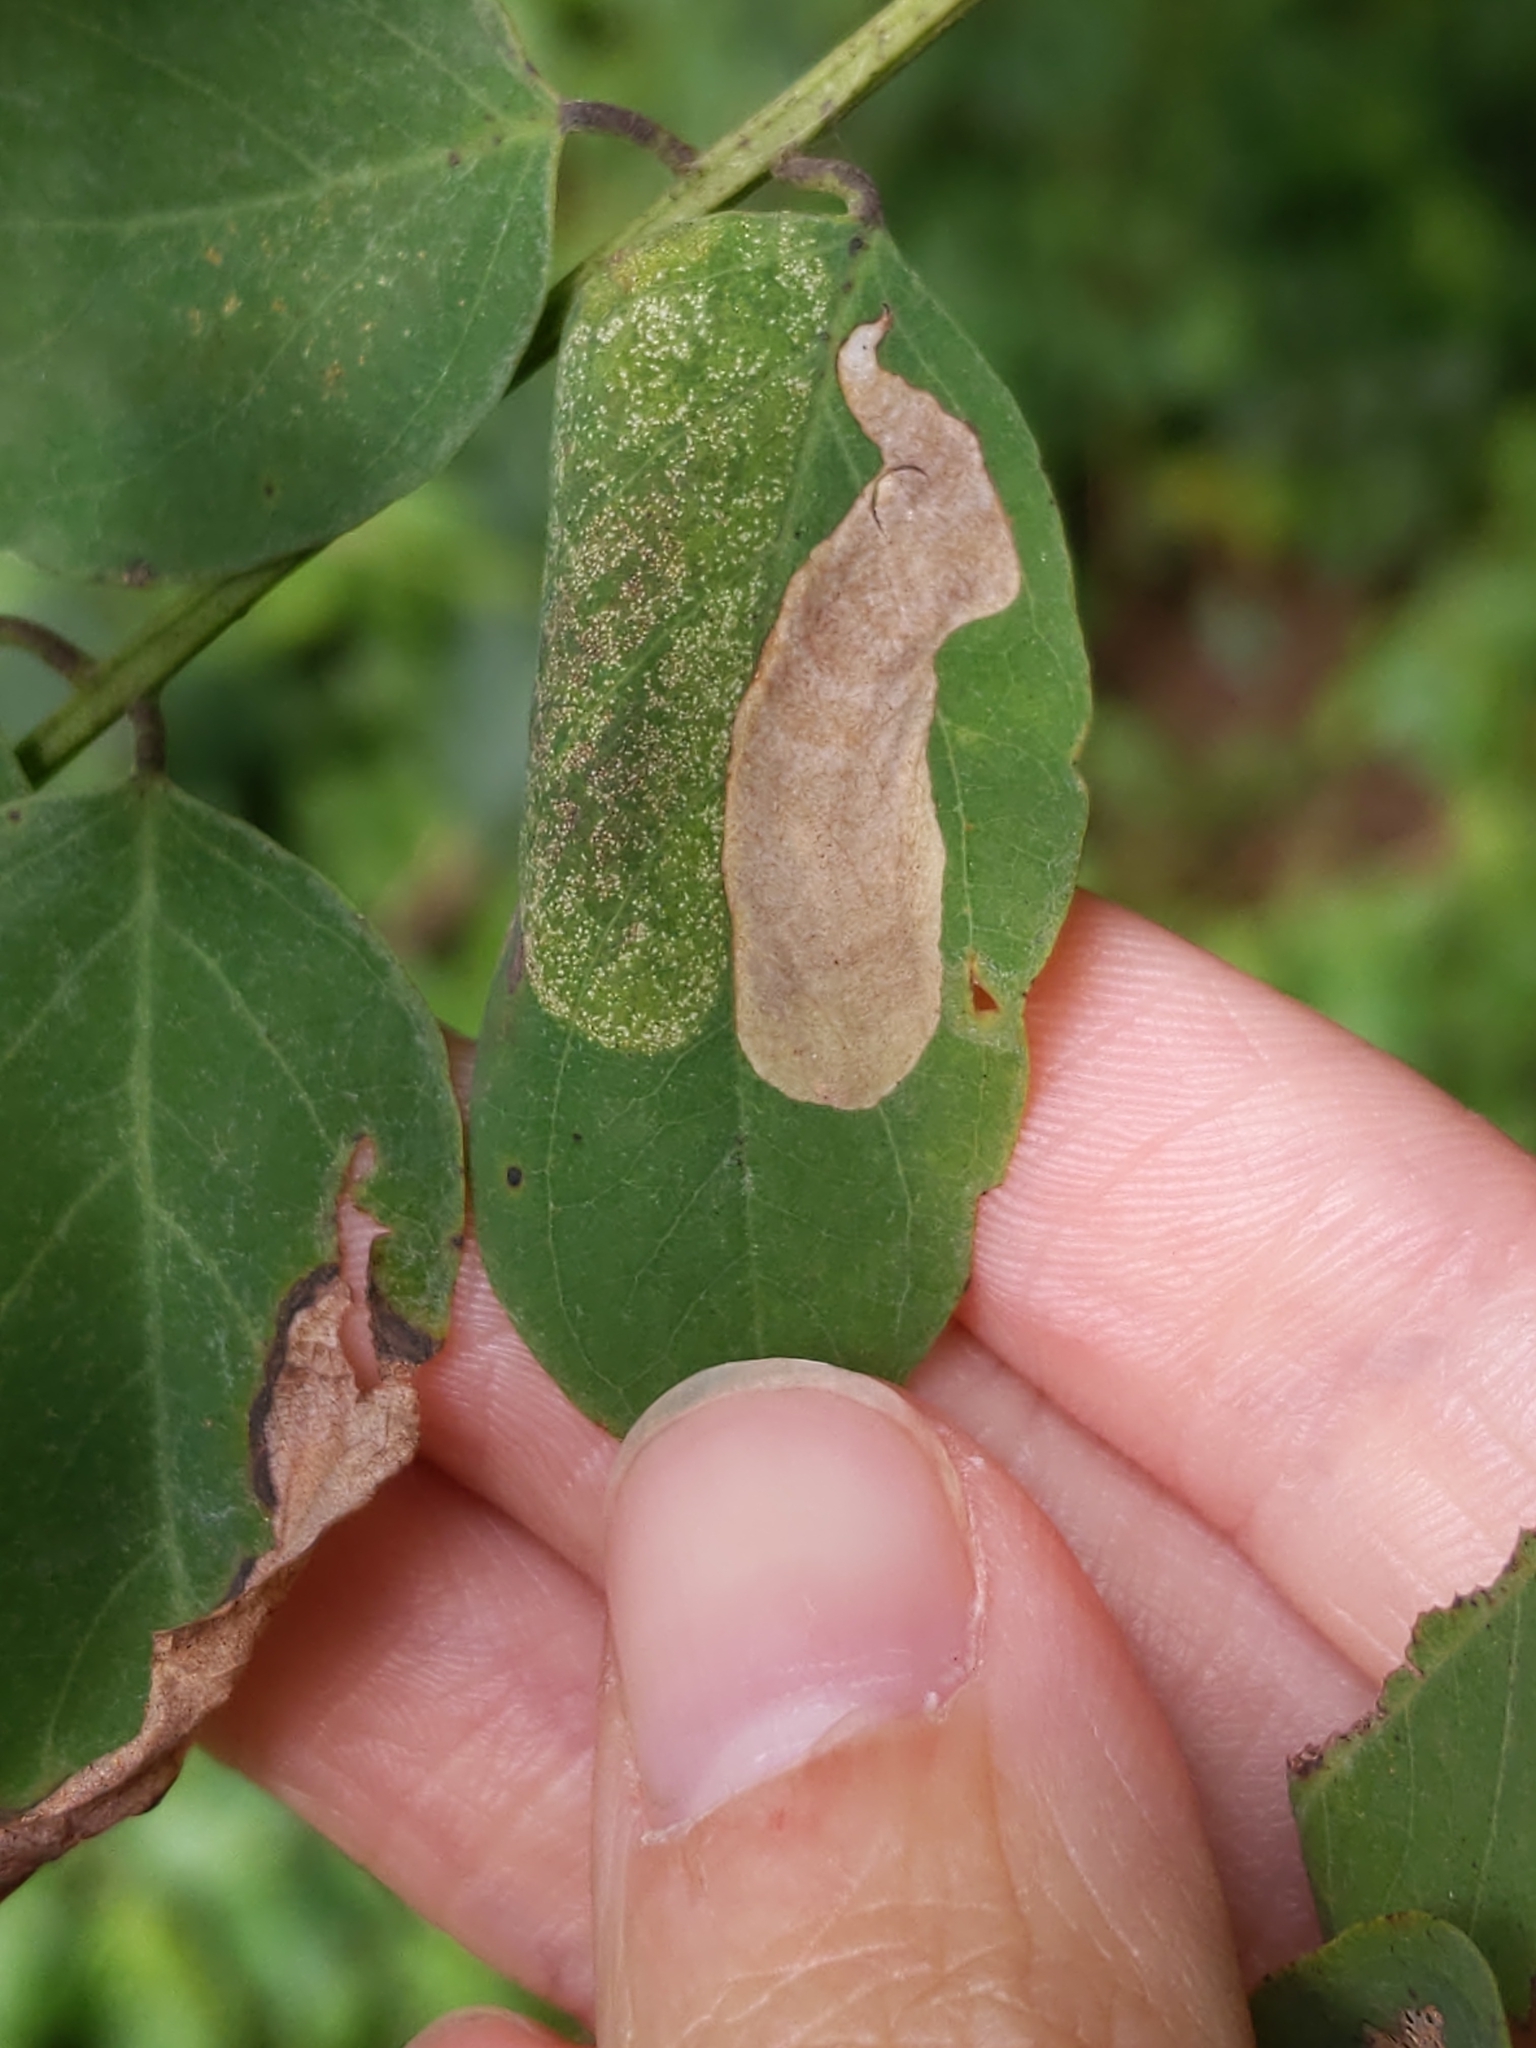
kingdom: Animalia
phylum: Arthropoda
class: Insecta
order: Lepidoptera
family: Gracillariidae
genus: Chrysaster
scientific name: Chrysaster ostensackenella
